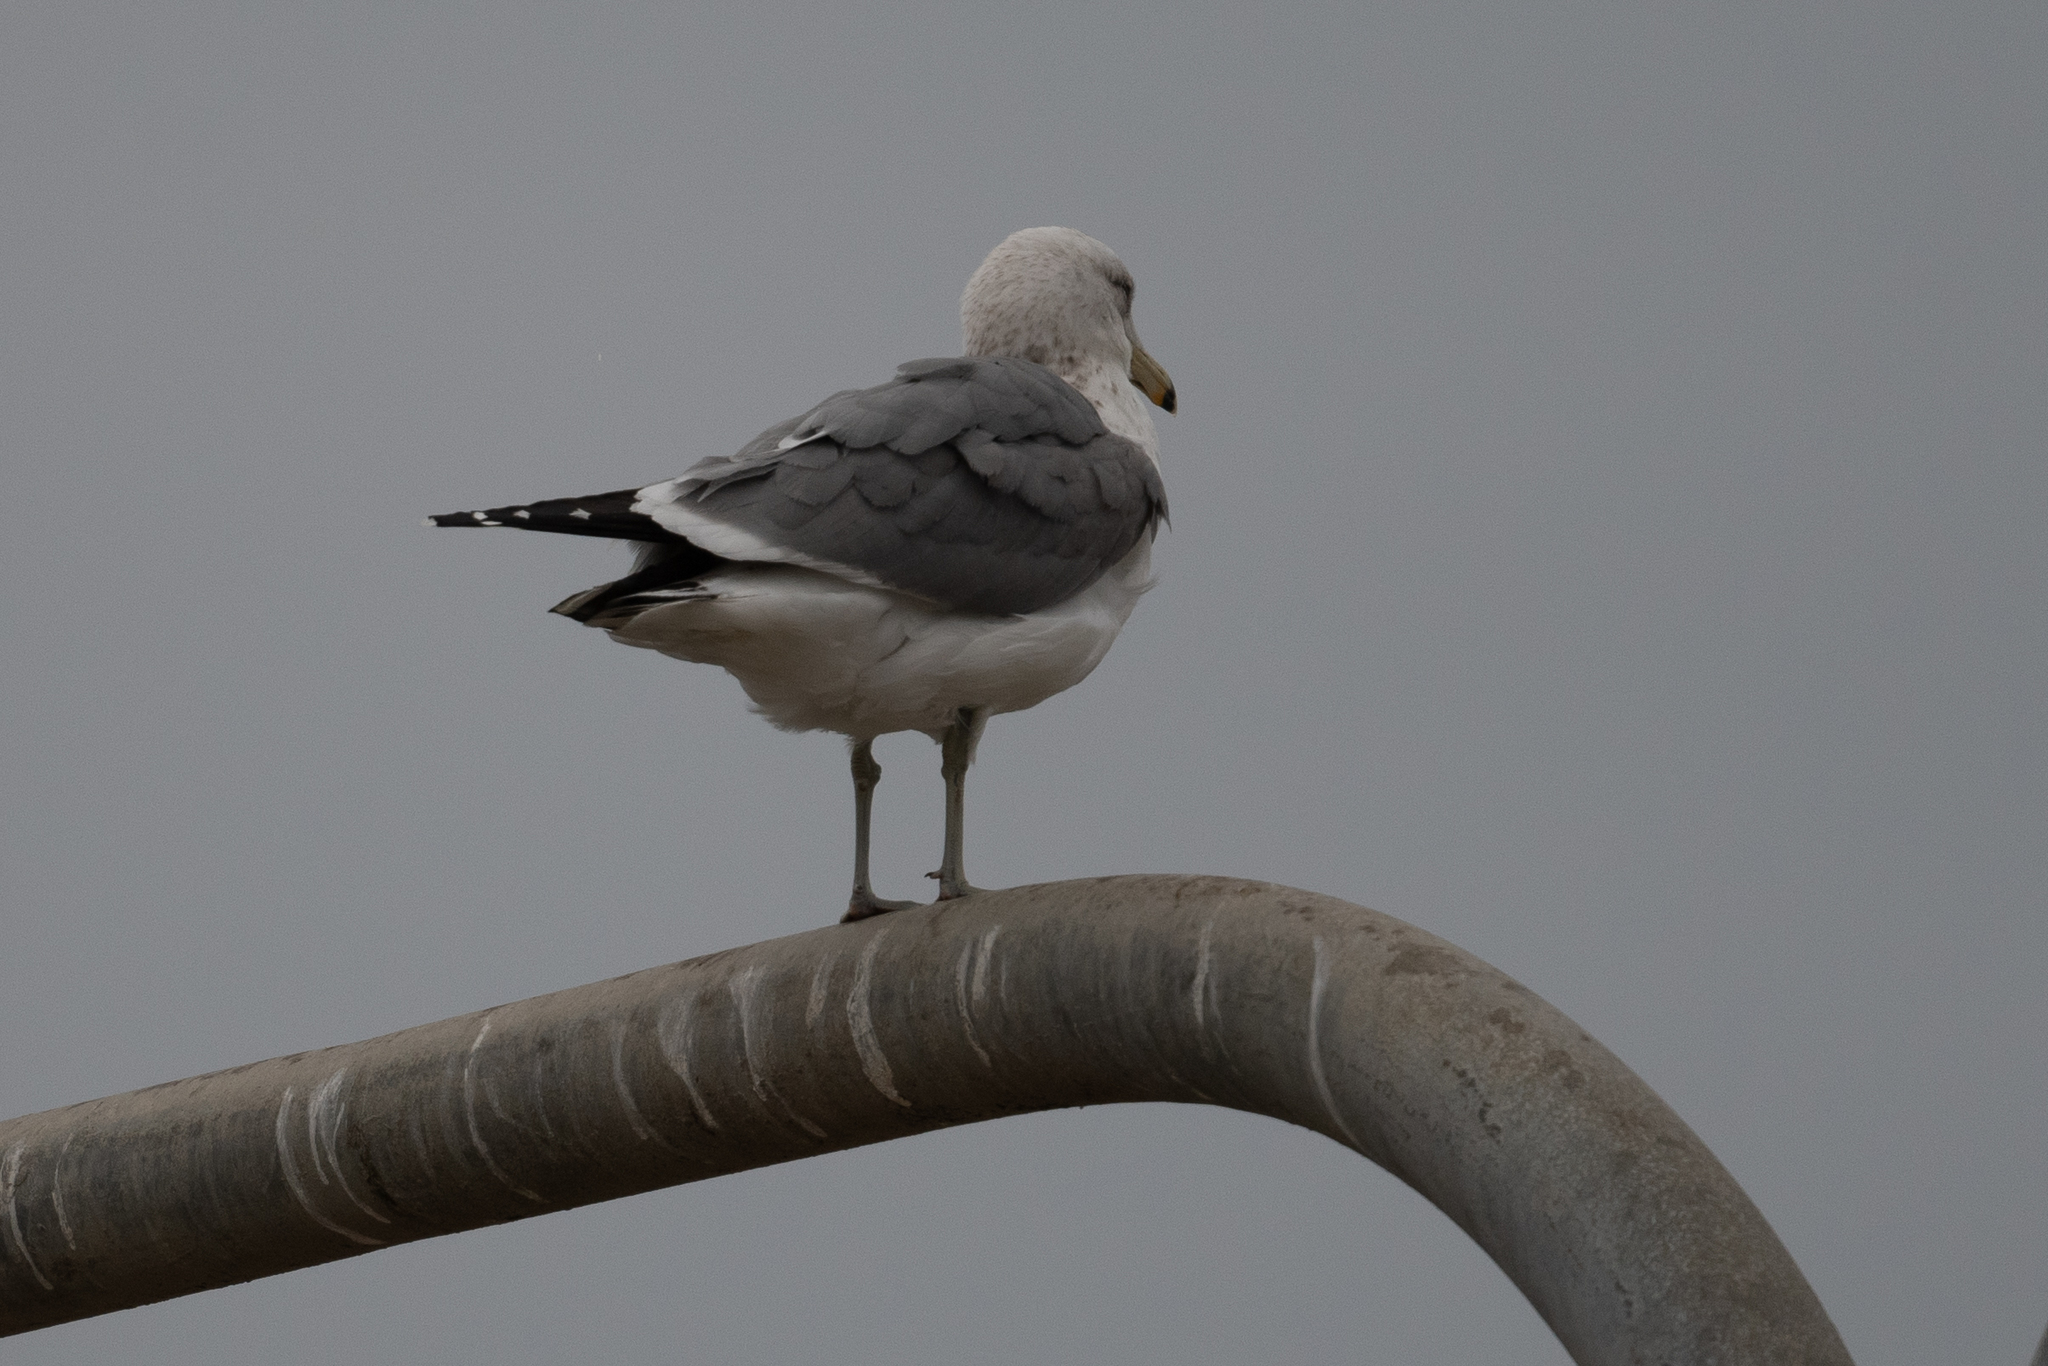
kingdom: Animalia
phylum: Chordata
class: Aves
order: Charadriiformes
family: Laridae
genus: Larus
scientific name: Larus californicus
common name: California gull
